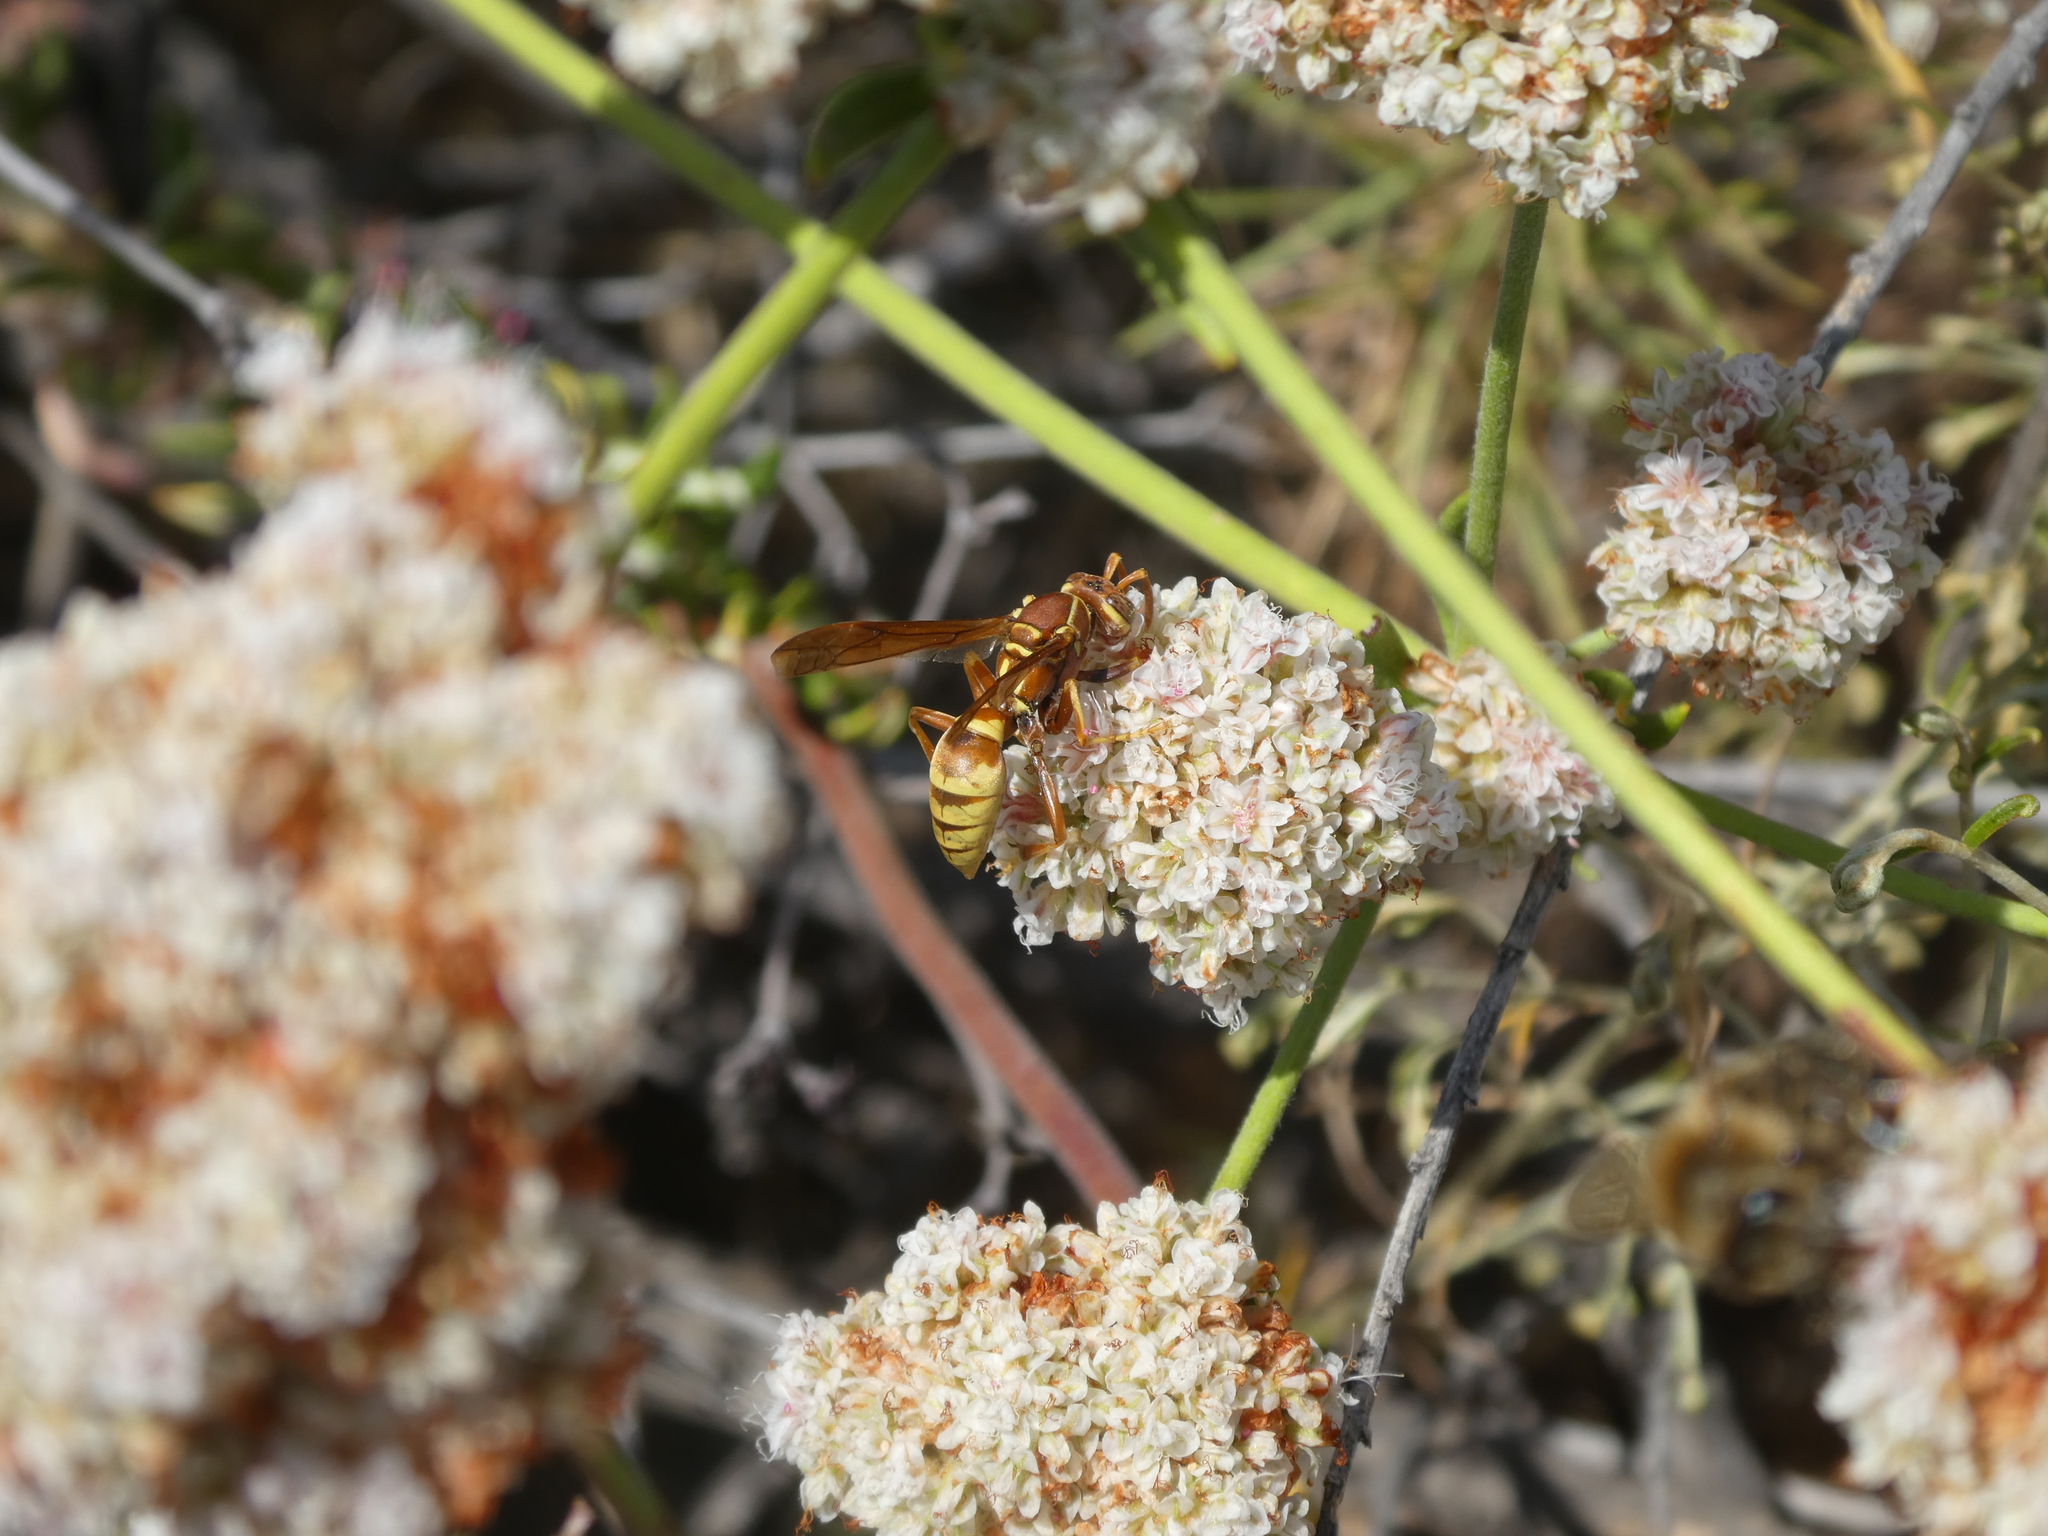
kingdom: Animalia
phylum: Arthropoda
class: Insecta
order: Hymenoptera
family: Eumenidae
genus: Polistes
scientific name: Polistes dorsalis
